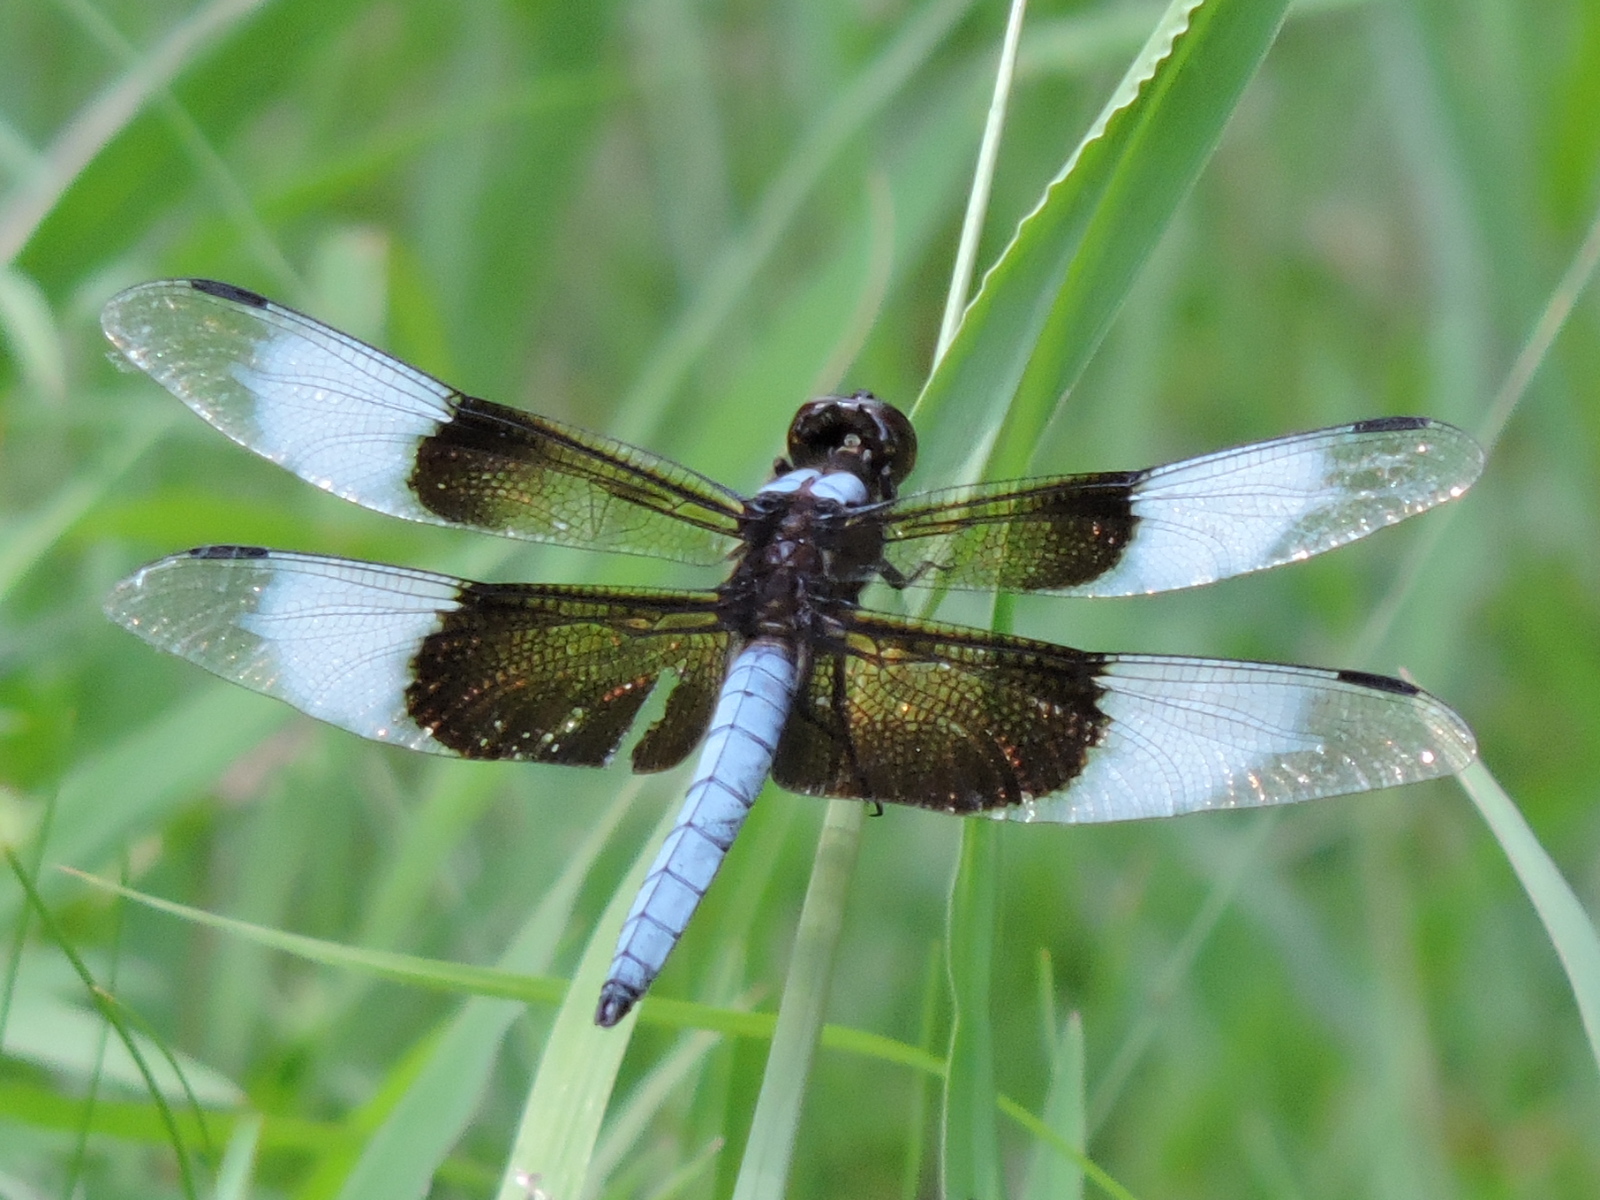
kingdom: Animalia
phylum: Arthropoda
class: Insecta
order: Odonata
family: Libellulidae
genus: Libellula
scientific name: Libellula luctuosa
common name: Widow skimmer
